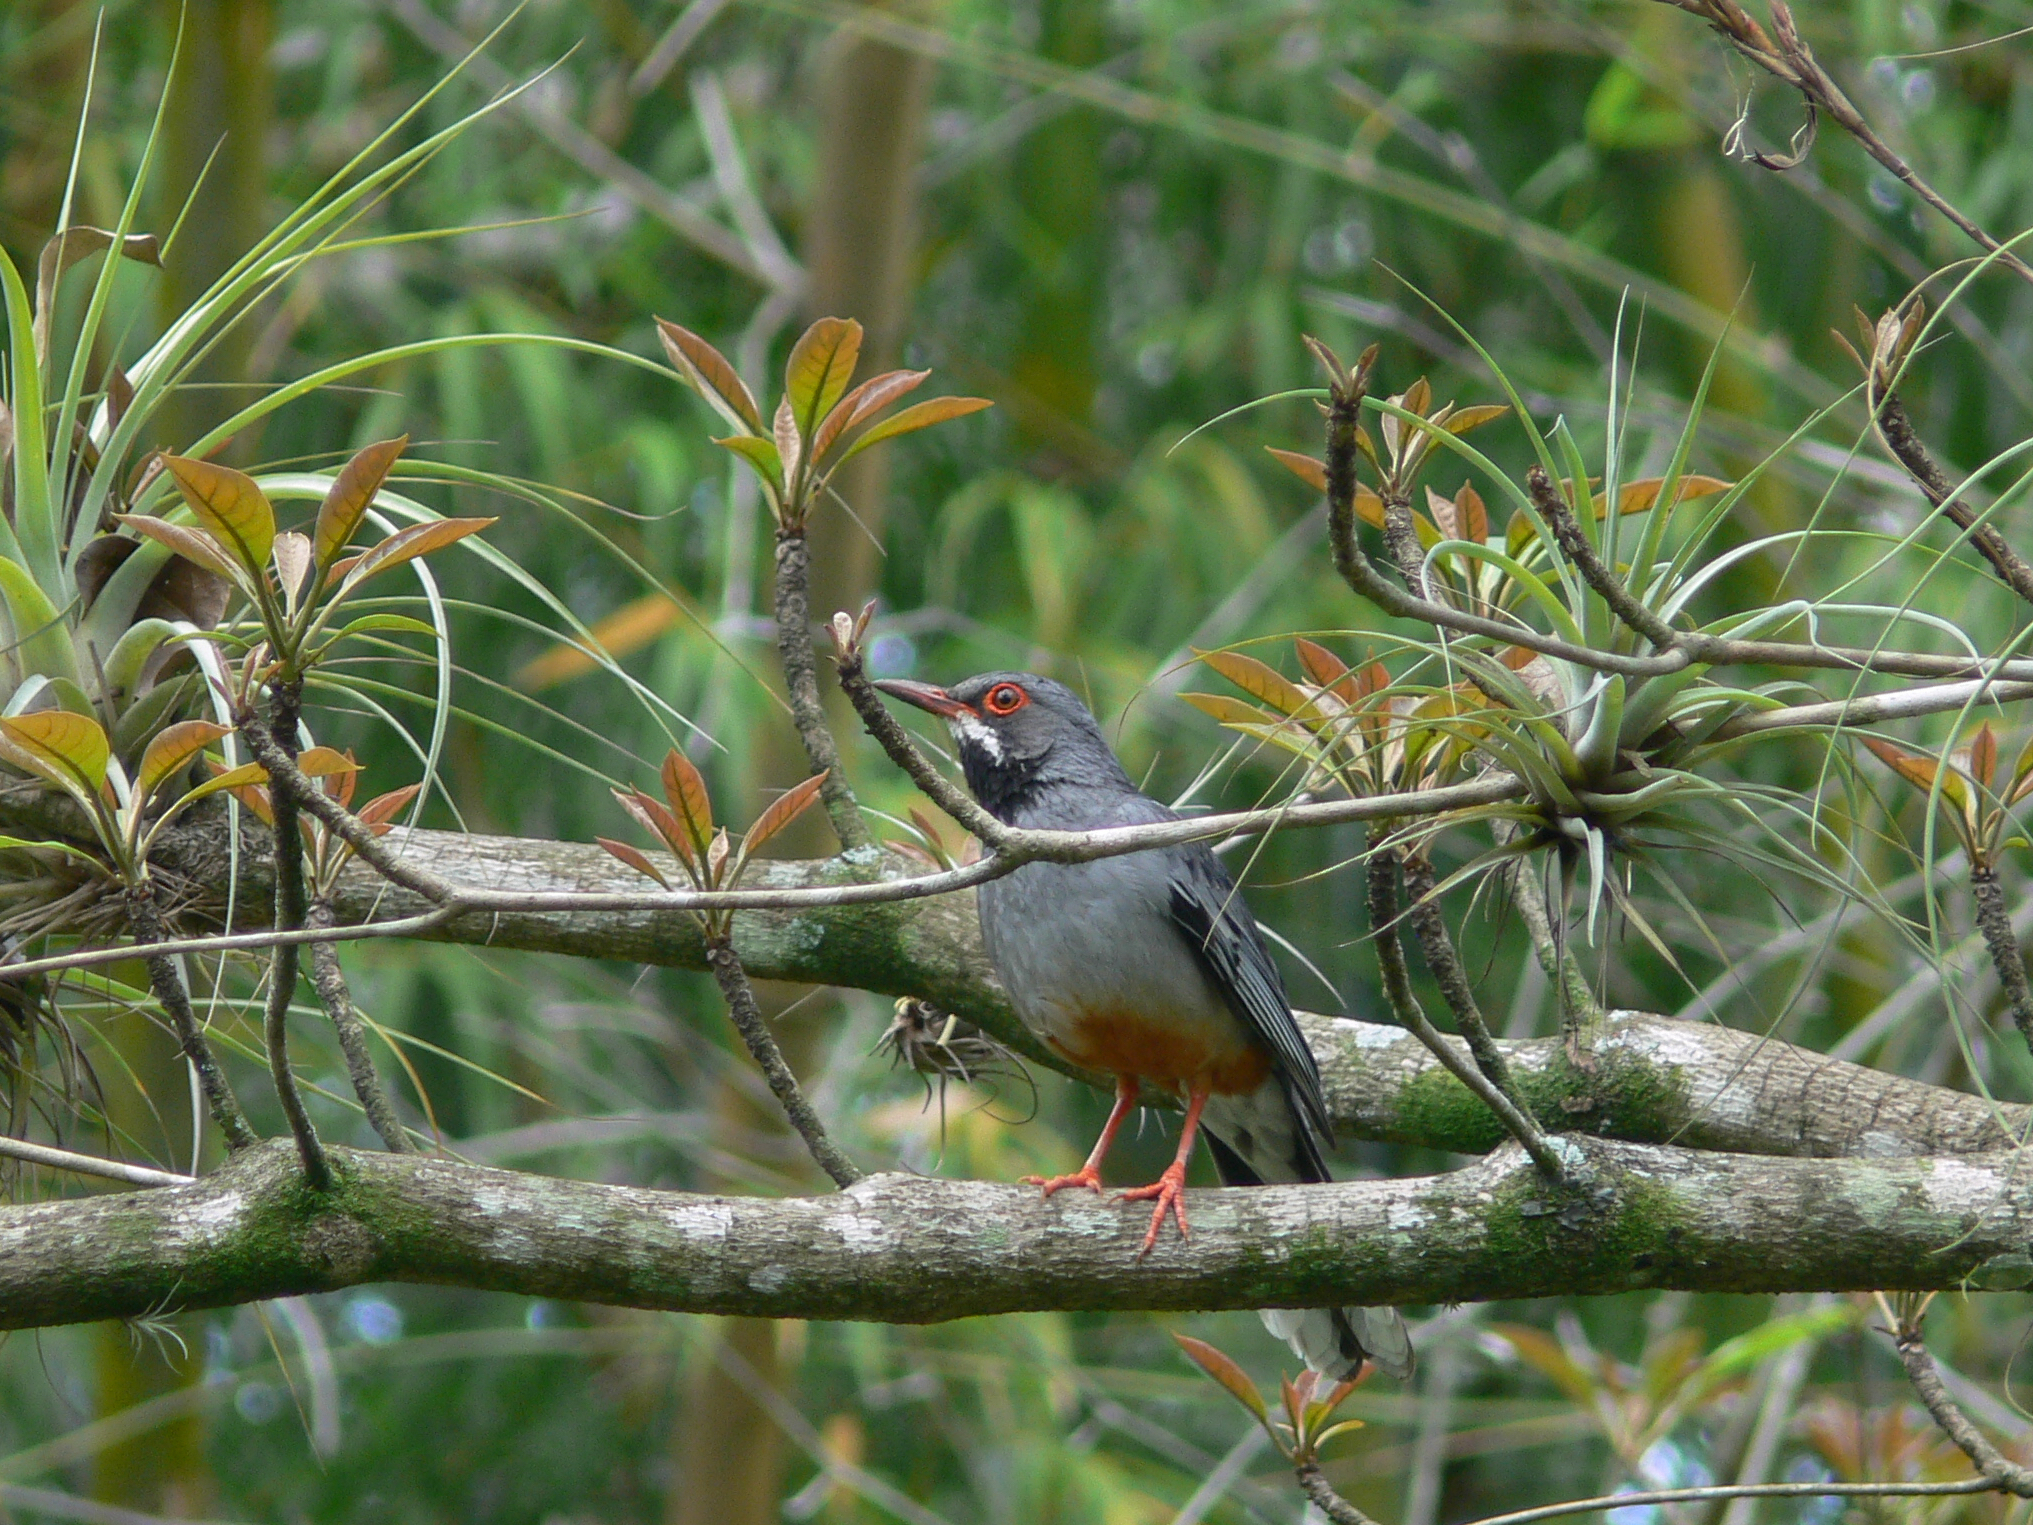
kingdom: Animalia
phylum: Chordata
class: Aves
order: Passeriformes
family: Turdidae
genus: Turdus
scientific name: Turdus plumbeus
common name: Red-legged thrush
